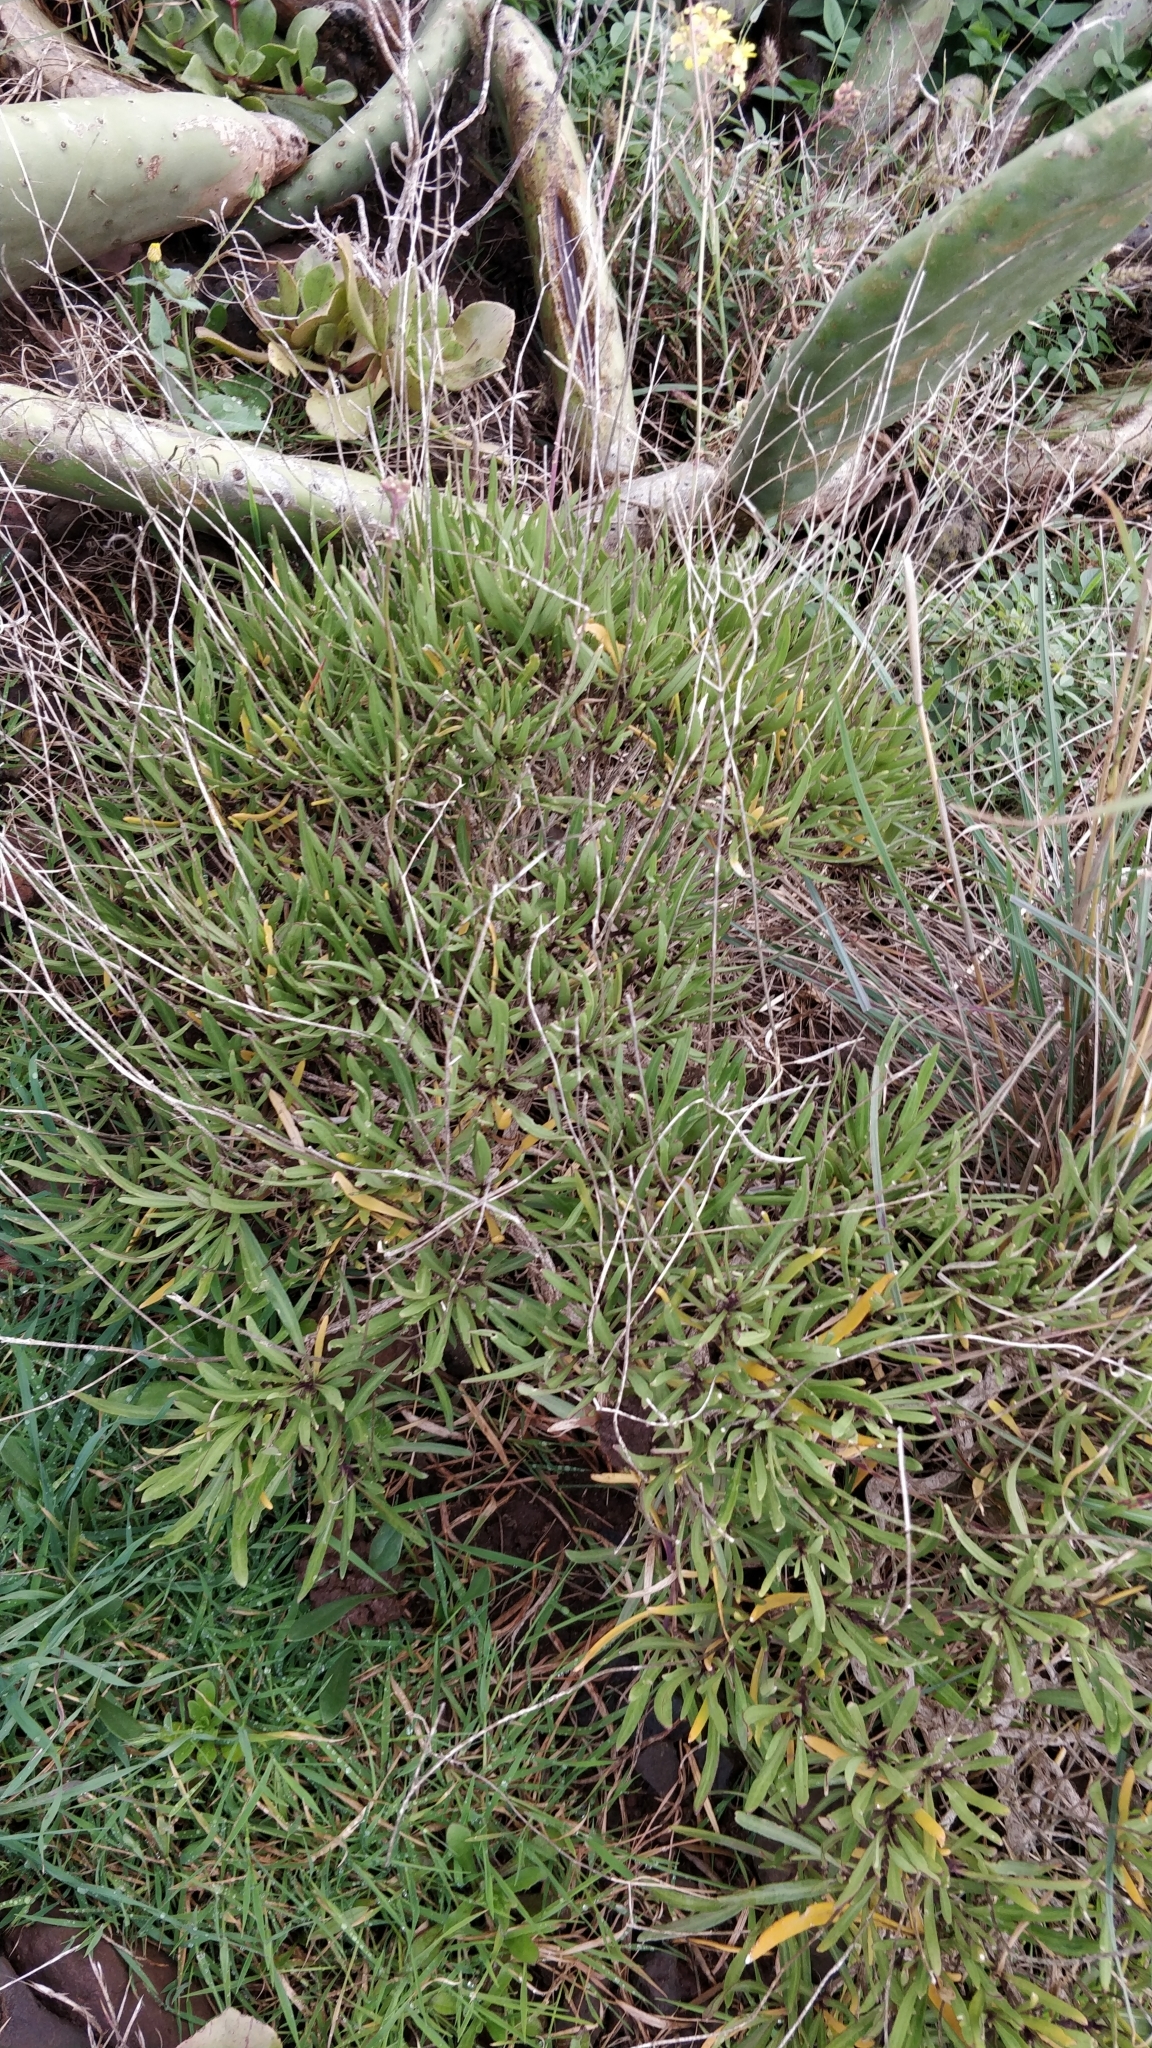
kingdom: Plantae
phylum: Tracheophyta
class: Magnoliopsida
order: Brassicales
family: Brassicaceae
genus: Sinapidendron
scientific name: Sinapidendron angustifolium
